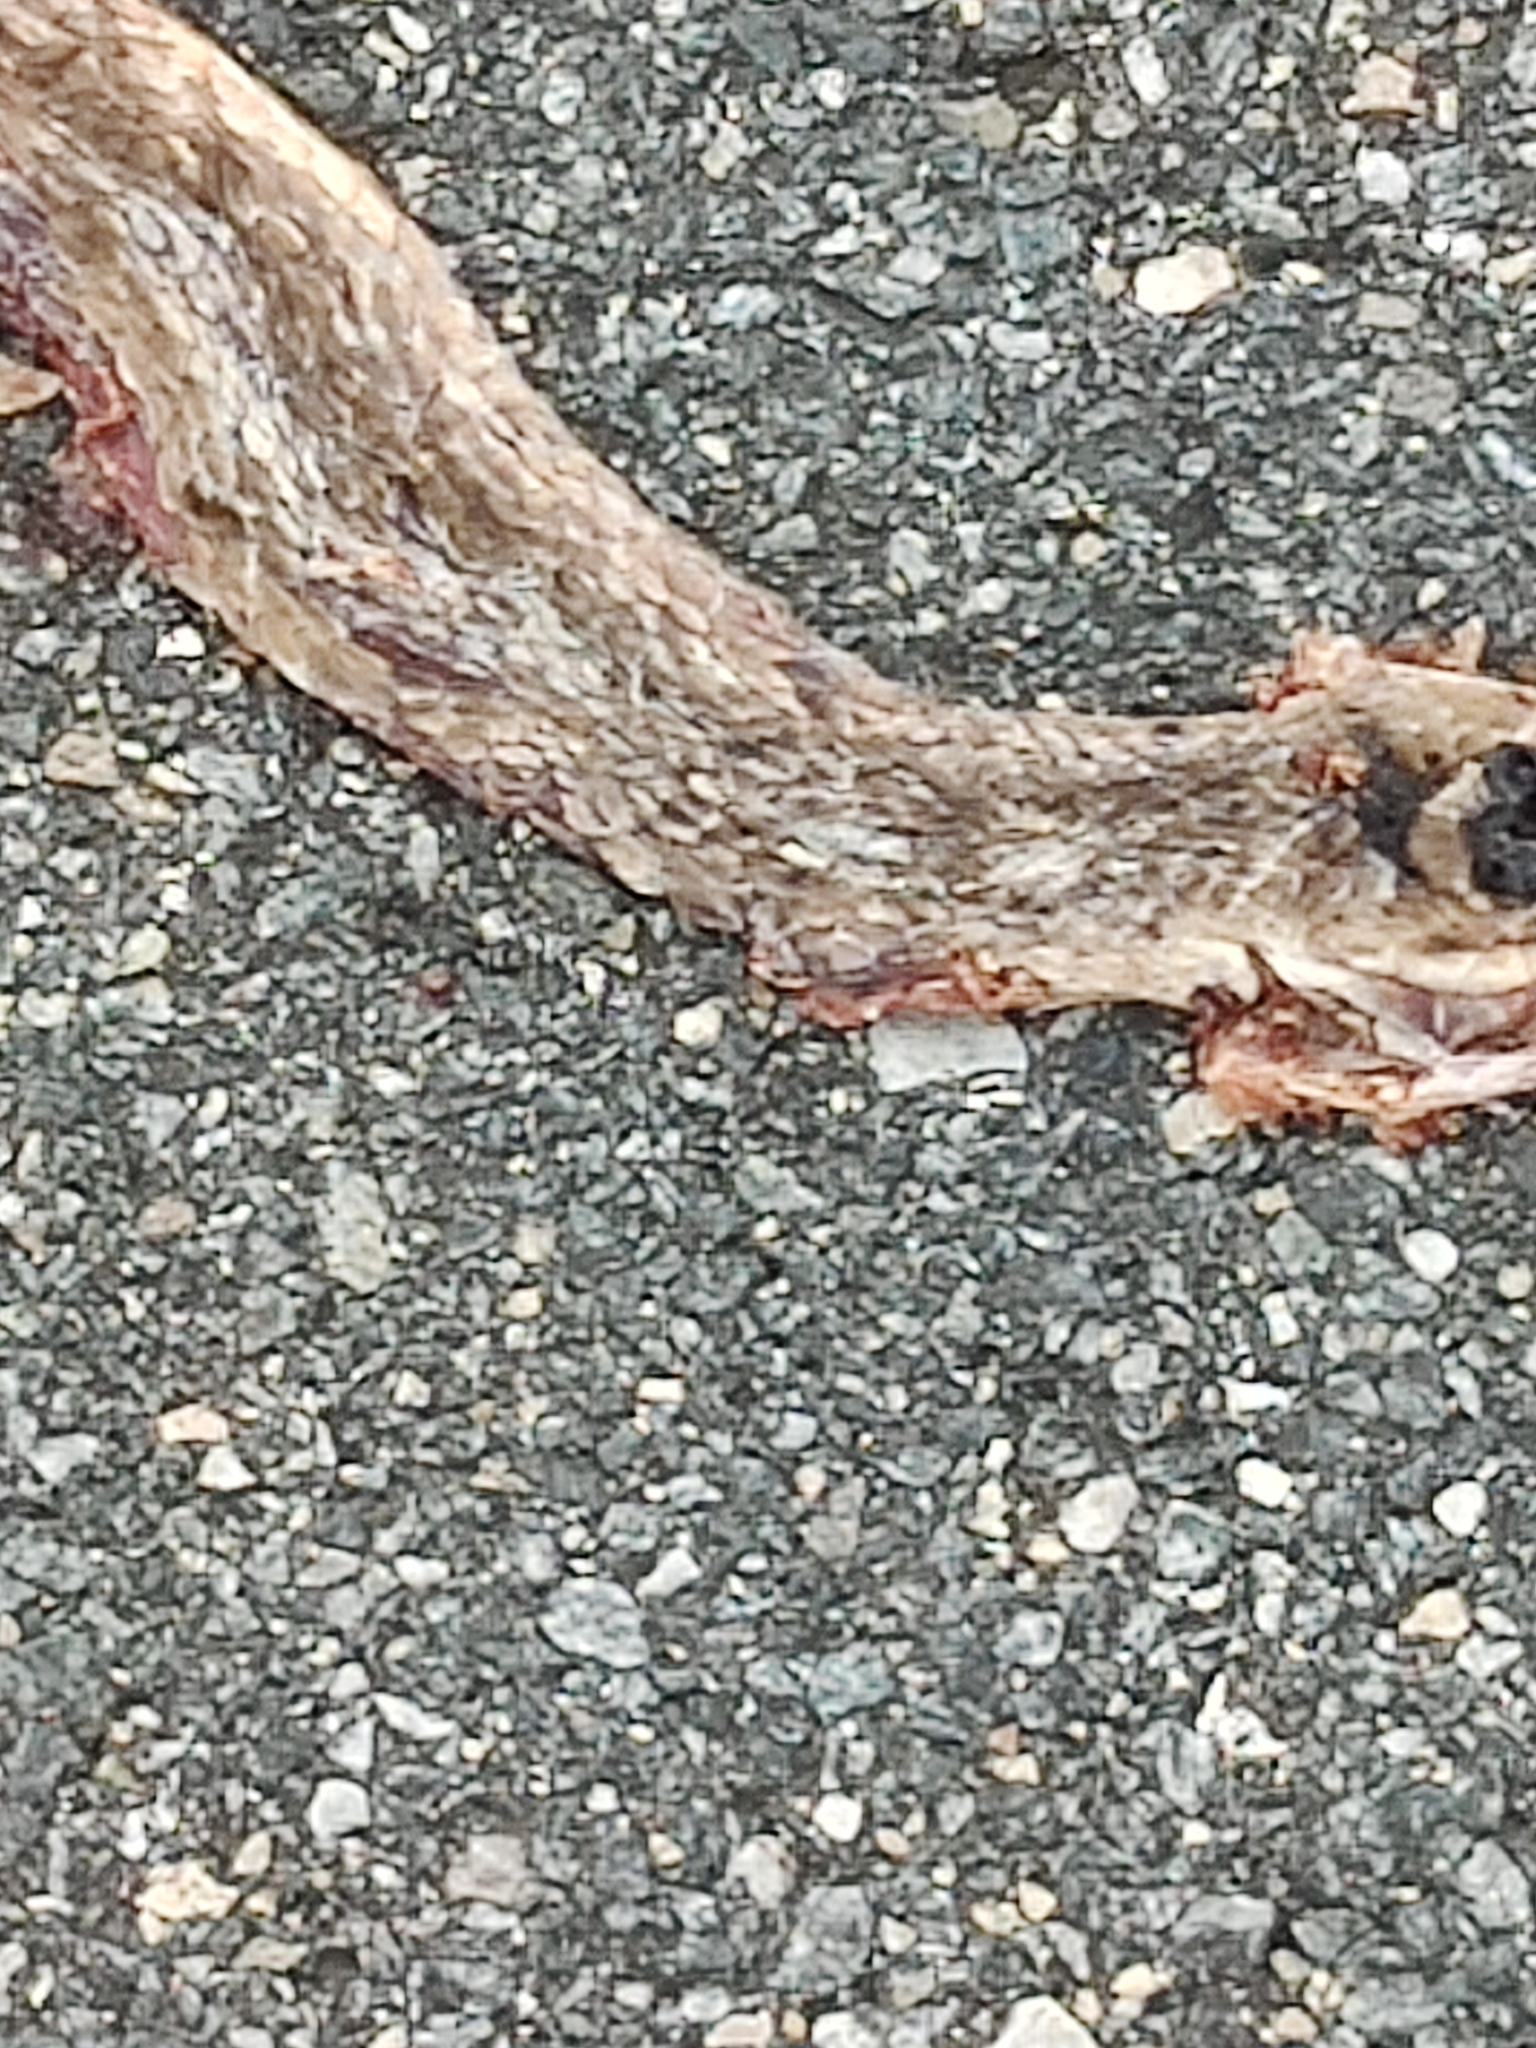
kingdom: Animalia
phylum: Chordata
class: Squamata
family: Colubridae
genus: Masticophis
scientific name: Masticophis flagellum
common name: Coachwhip
